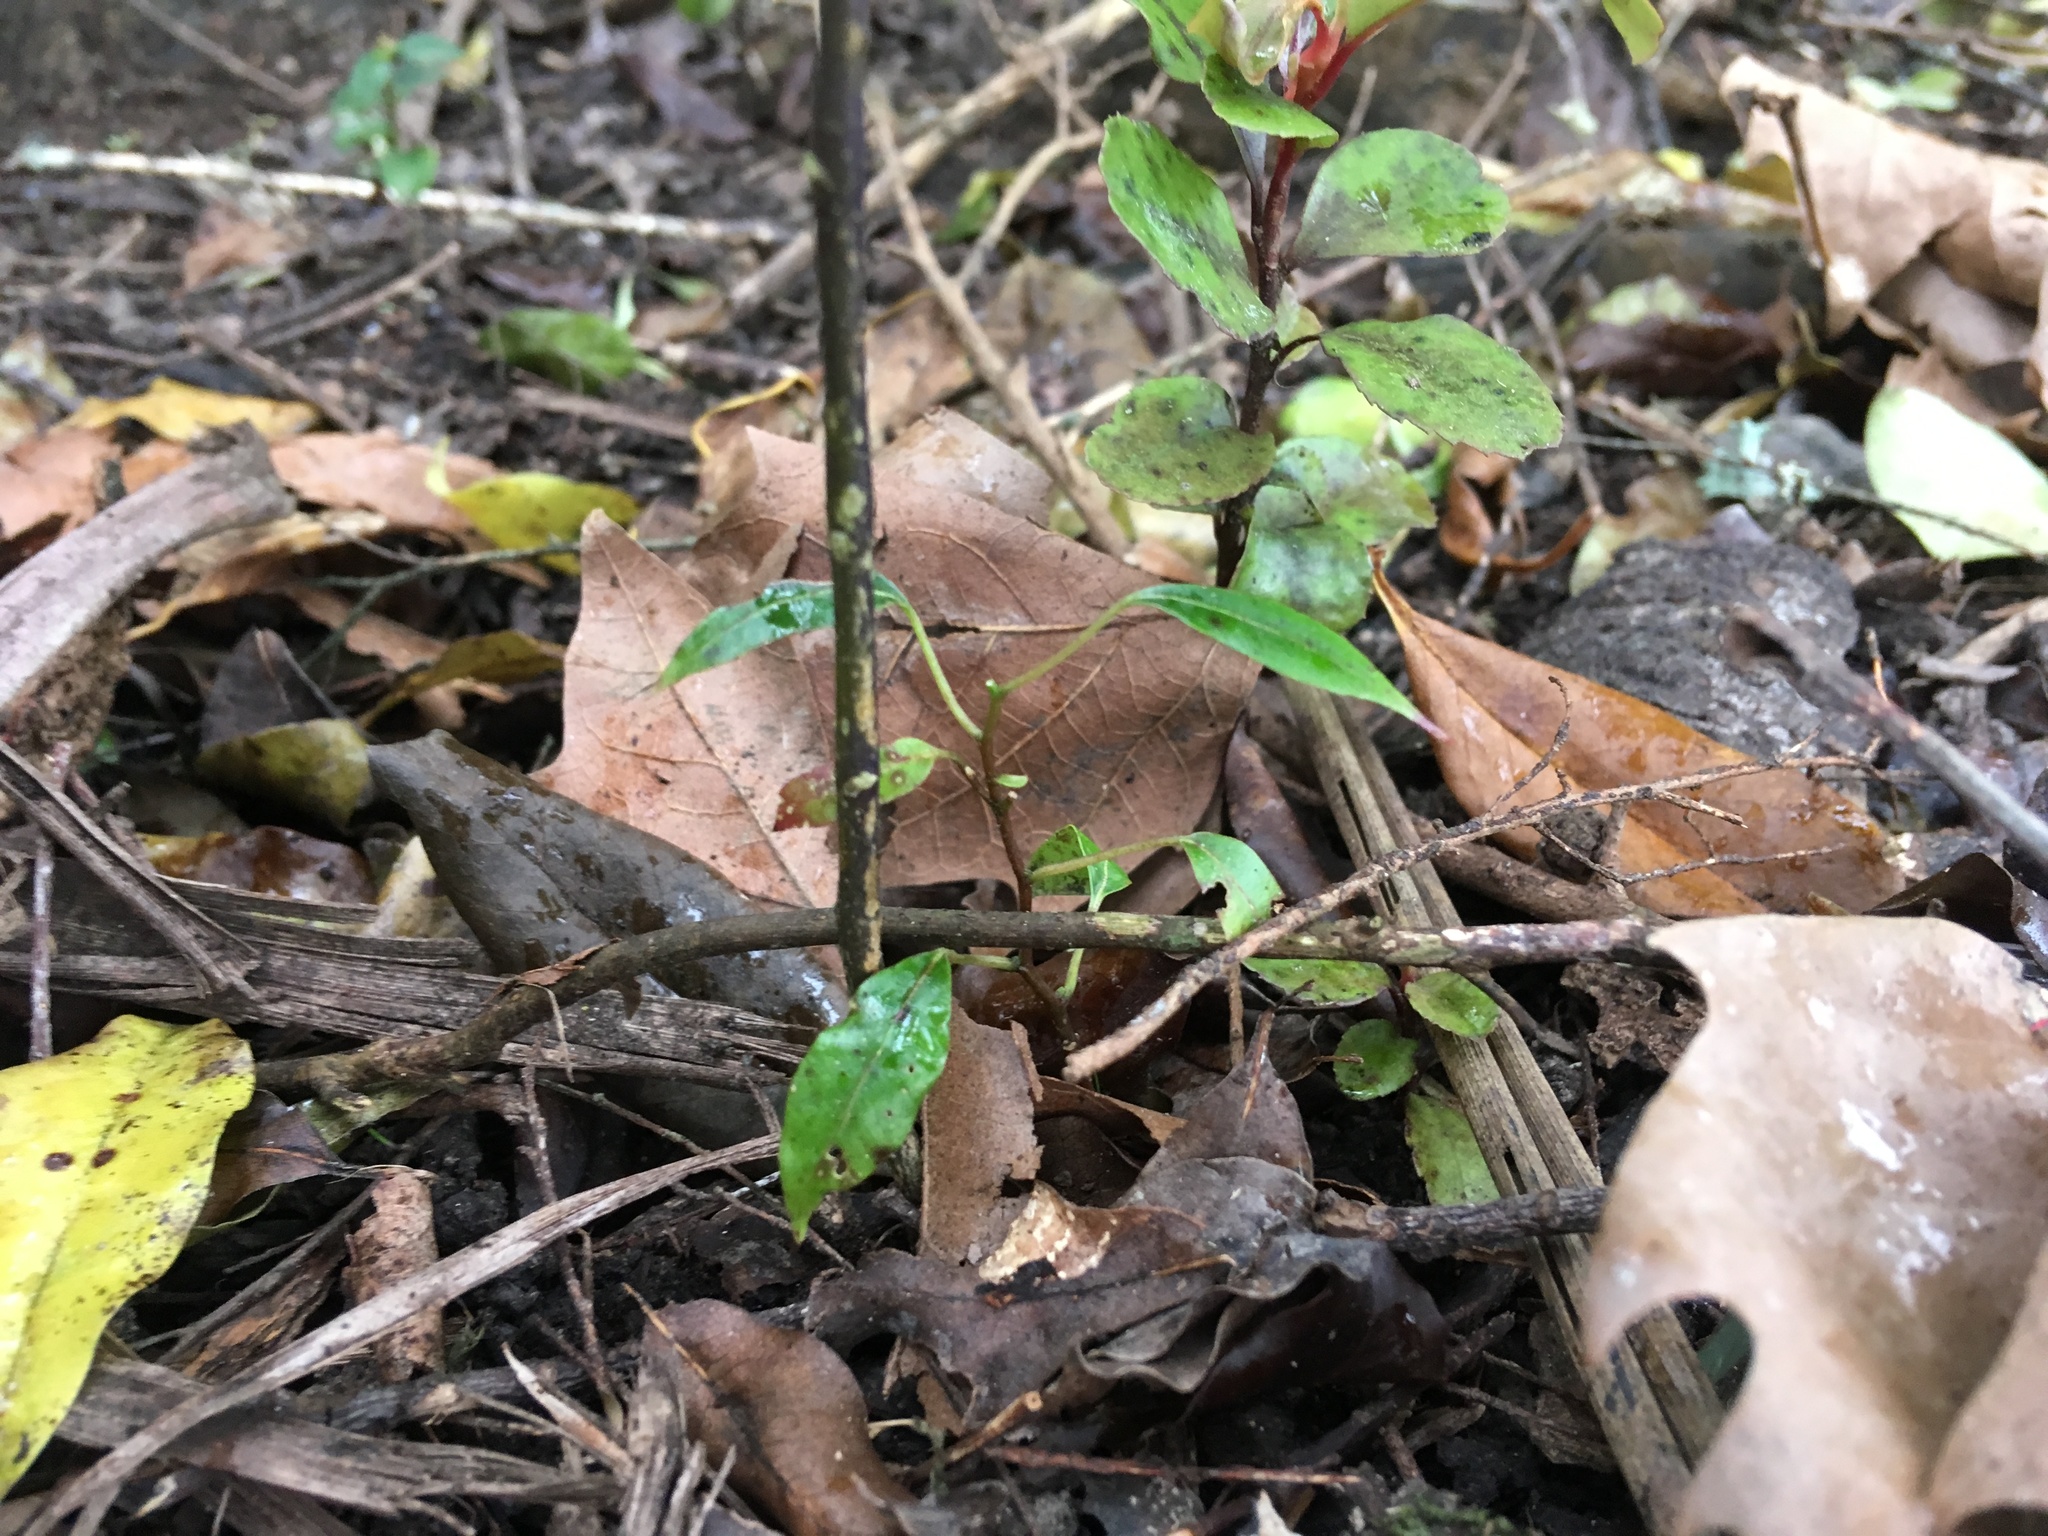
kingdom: Plantae
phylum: Tracheophyta
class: Magnoliopsida
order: Malpighiales
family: Passifloraceae
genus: Passiflora
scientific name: Passiflora tetrandra
